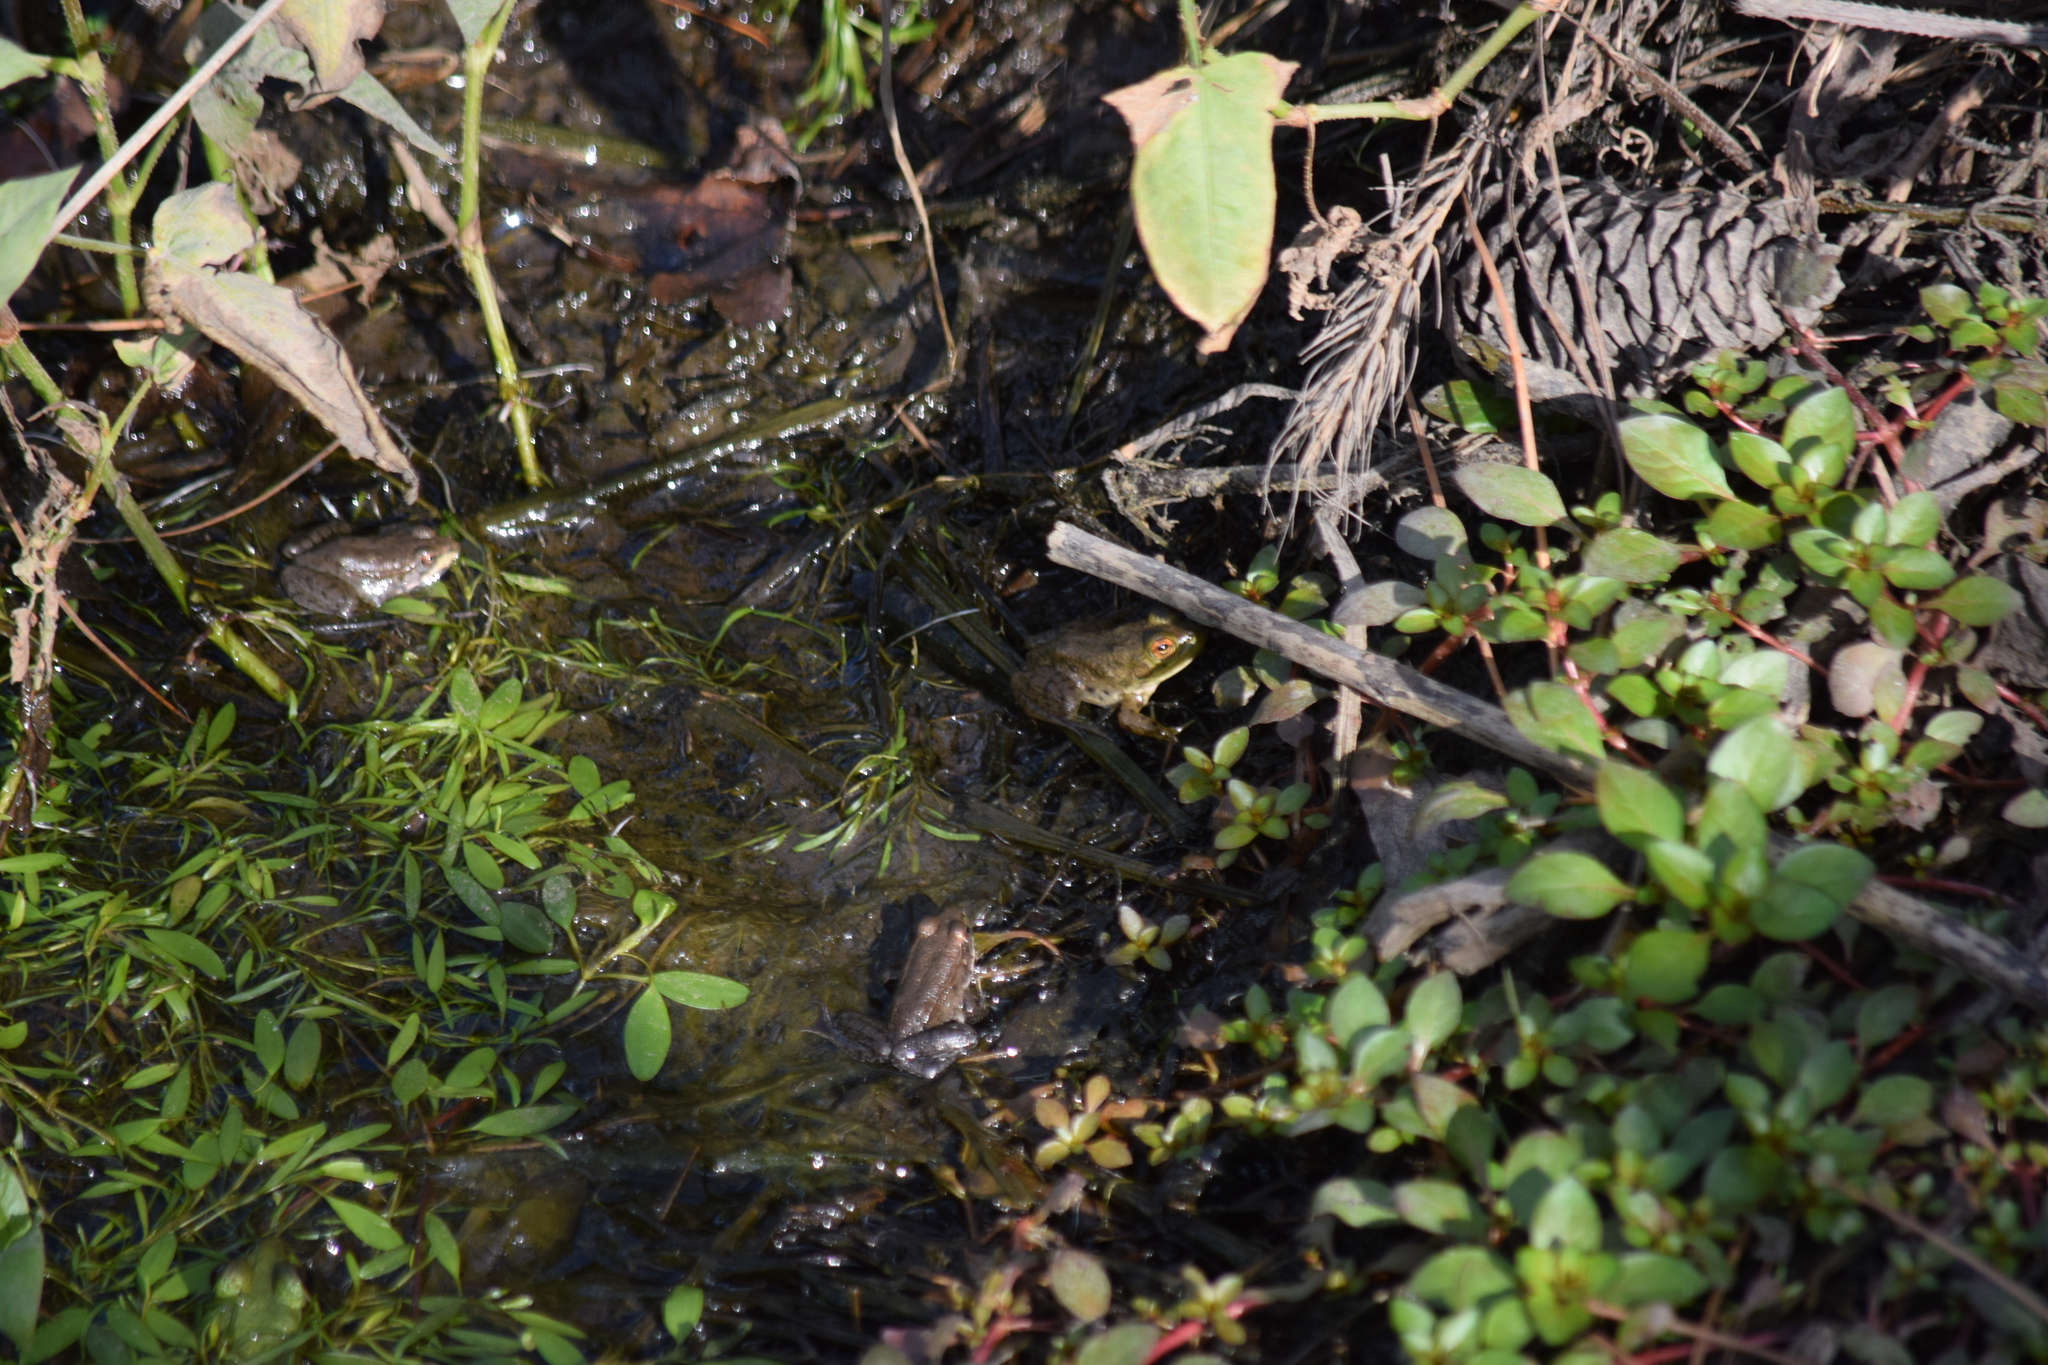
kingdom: Animalia
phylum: Chordata
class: Amphibia
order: Anura
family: Ranidae
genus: Lithobates
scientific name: Lithobates clamitans
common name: Green frog
